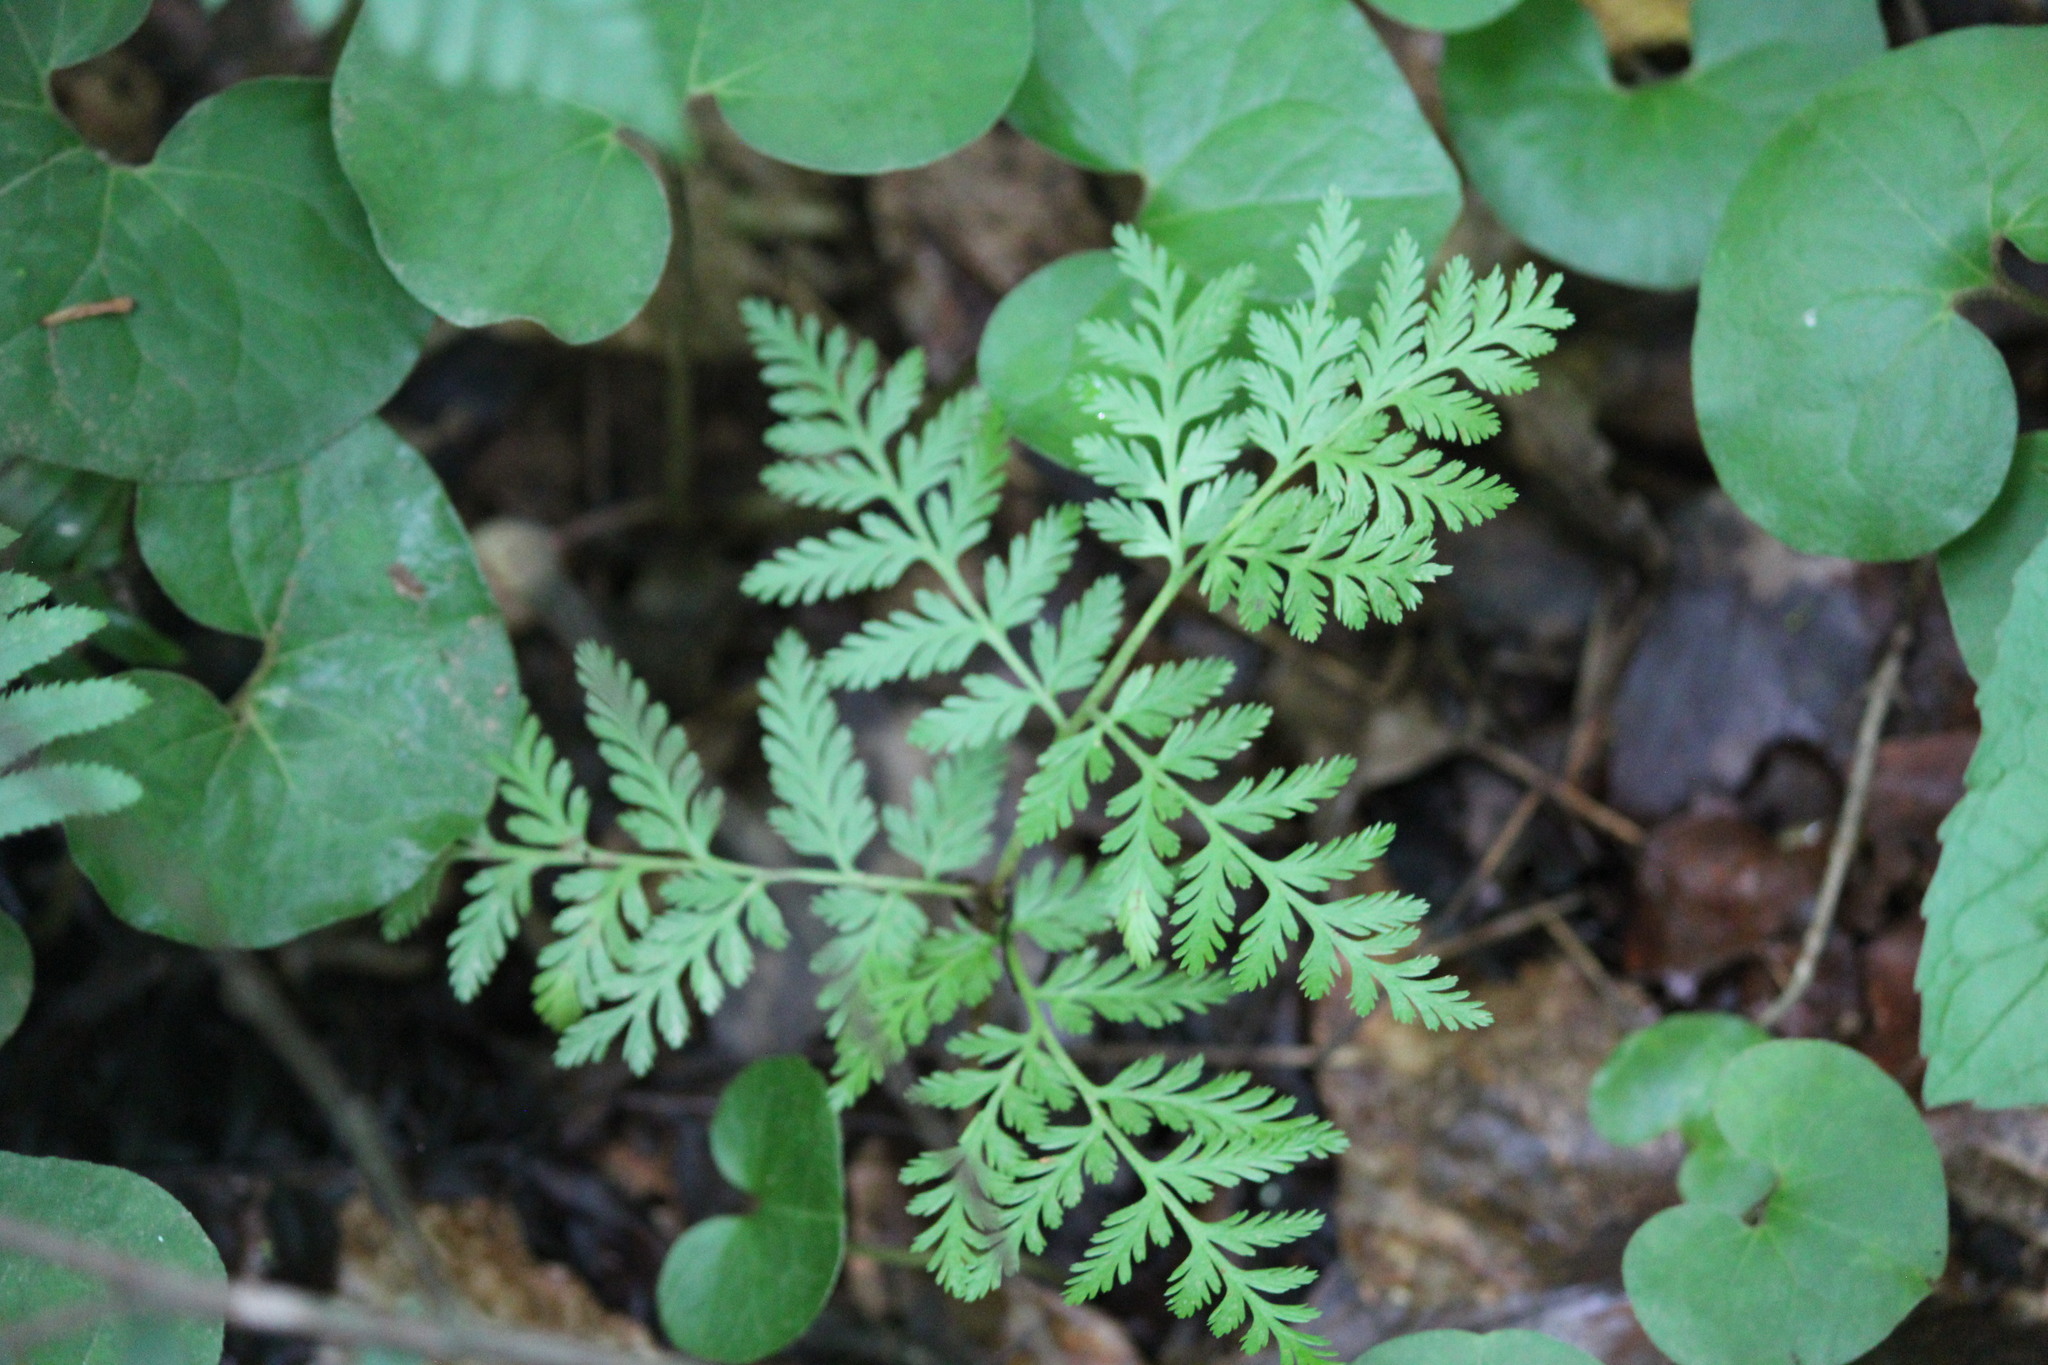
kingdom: Plantae
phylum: Tracheophyta
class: Polypodiopsida
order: Ophioglossales
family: Ophioglossaceae
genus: Botrypus
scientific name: Botrypus virginianus
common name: Common grapefern
